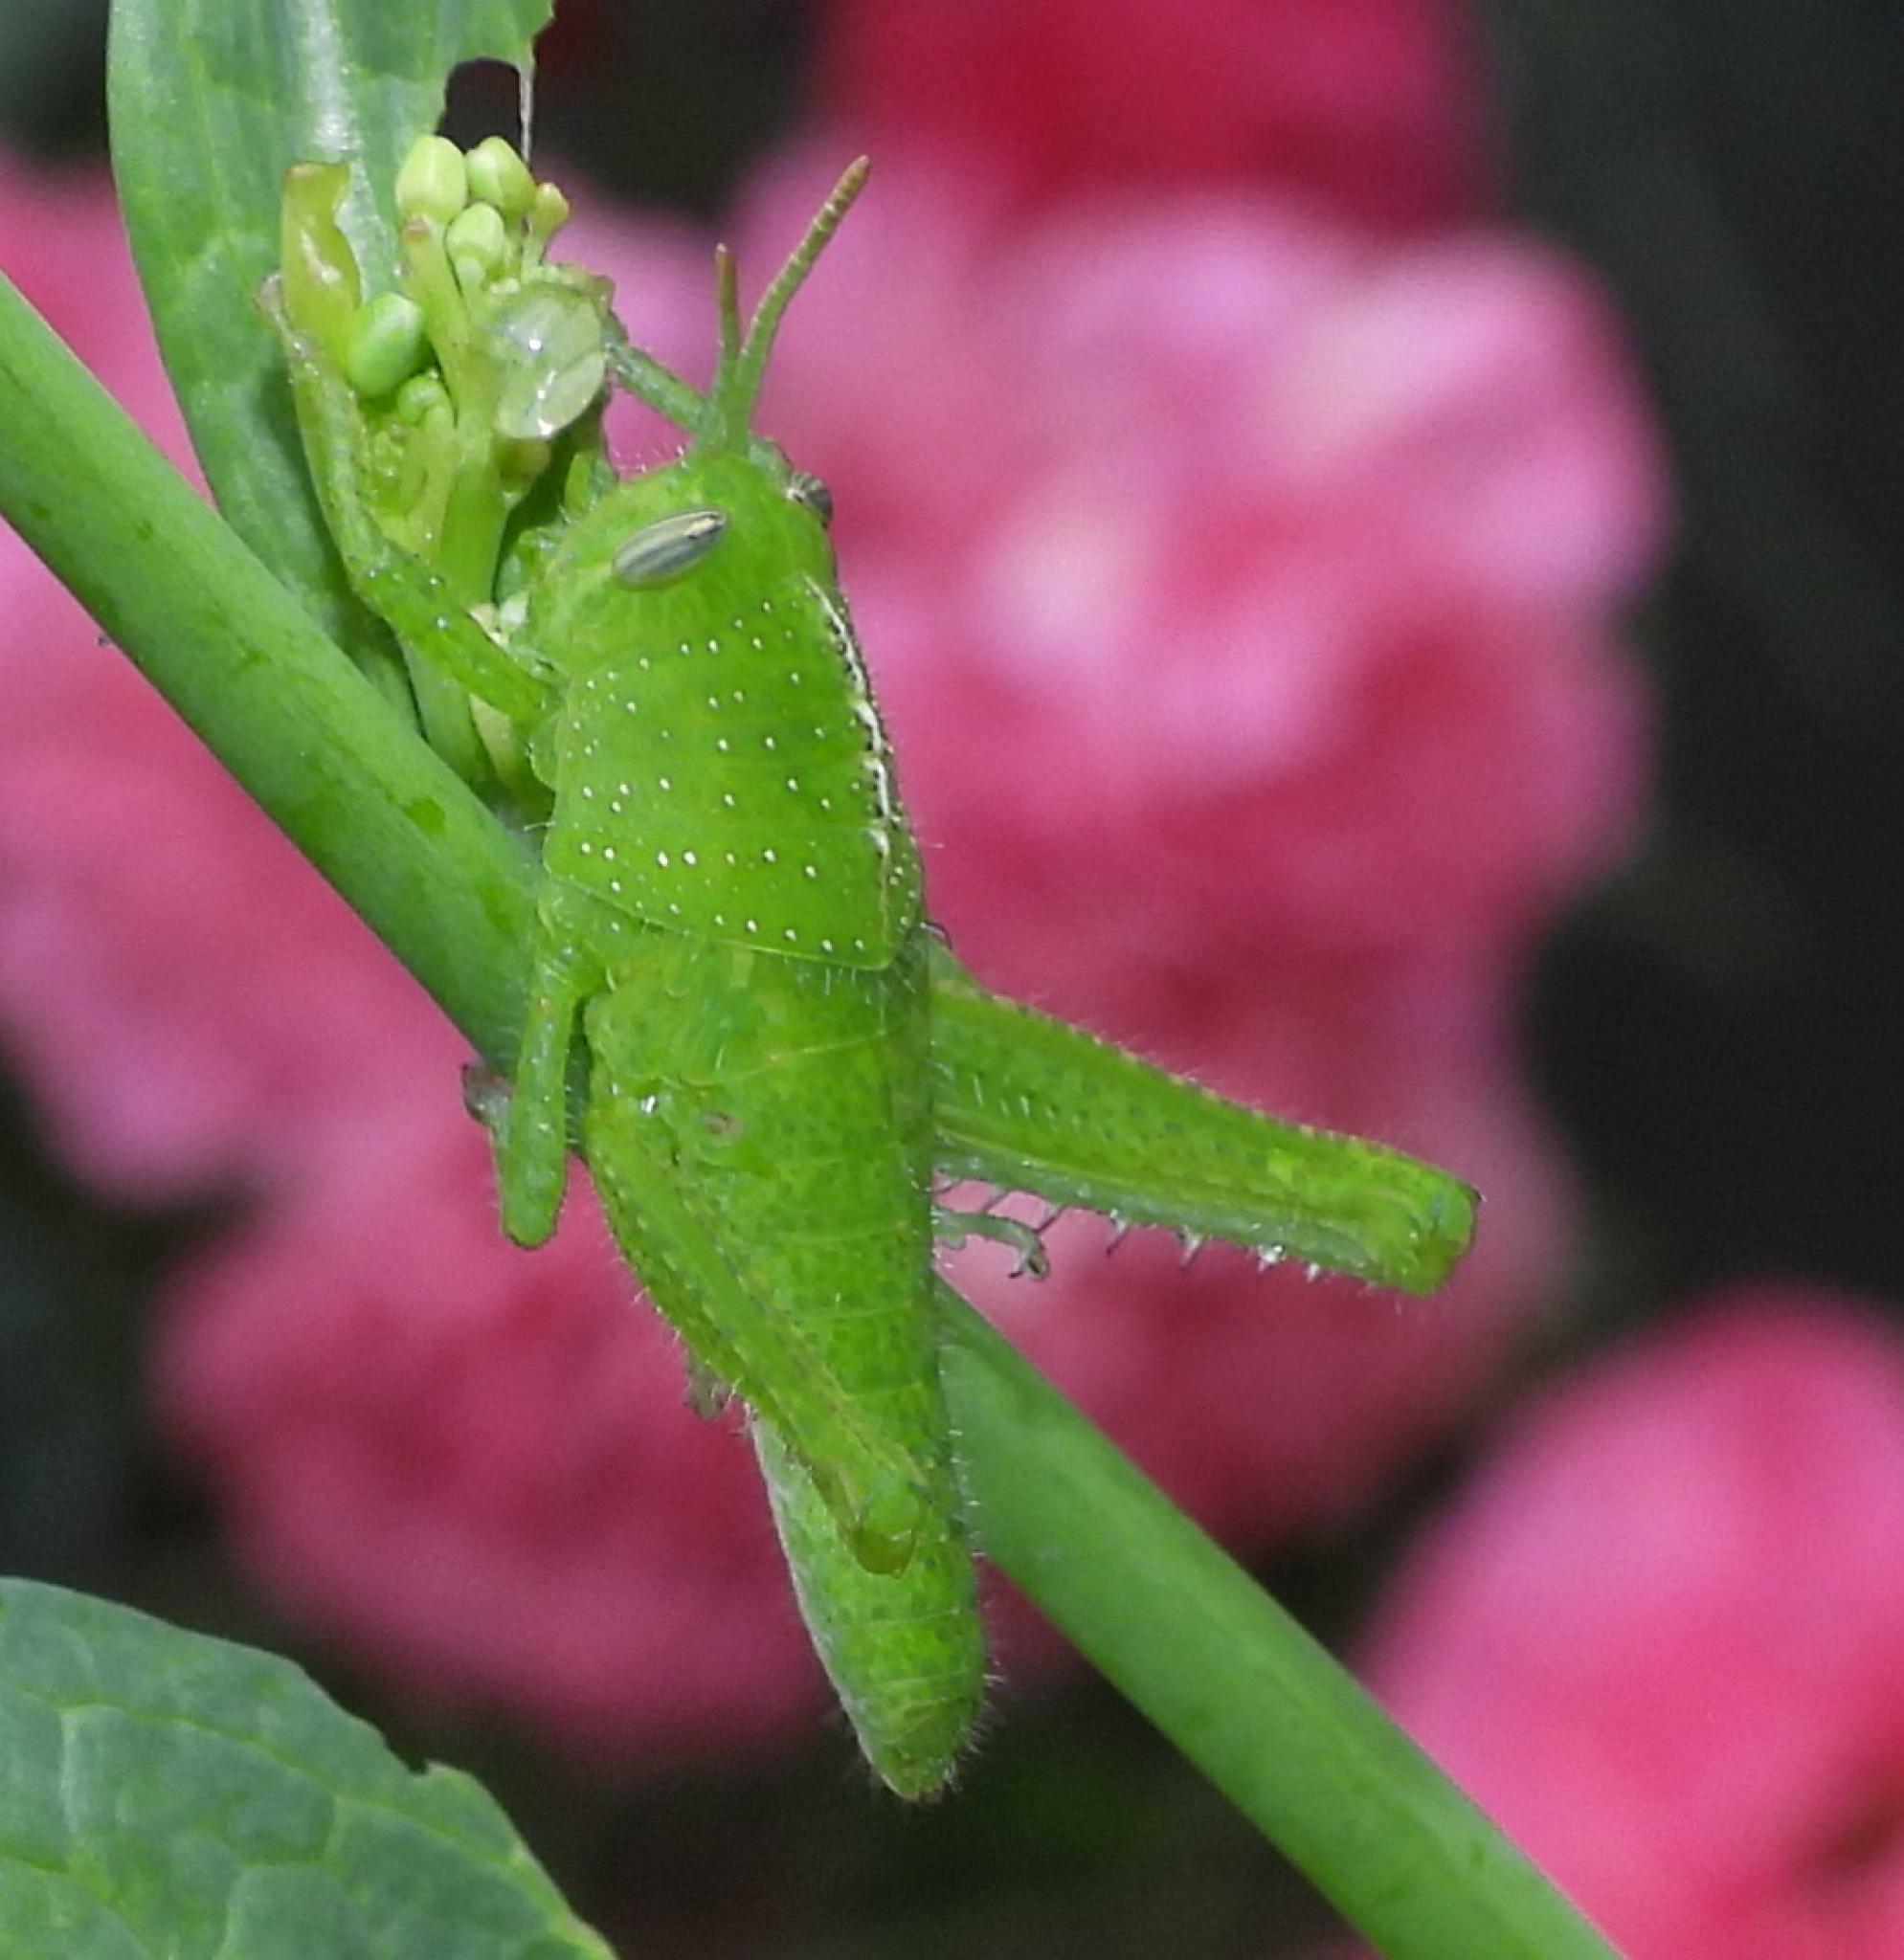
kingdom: Animalia
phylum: Arthropoda
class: Insecta
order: Orthoptera
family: Acrididae
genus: Acanthacris
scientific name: Acanthacris ruficornis
